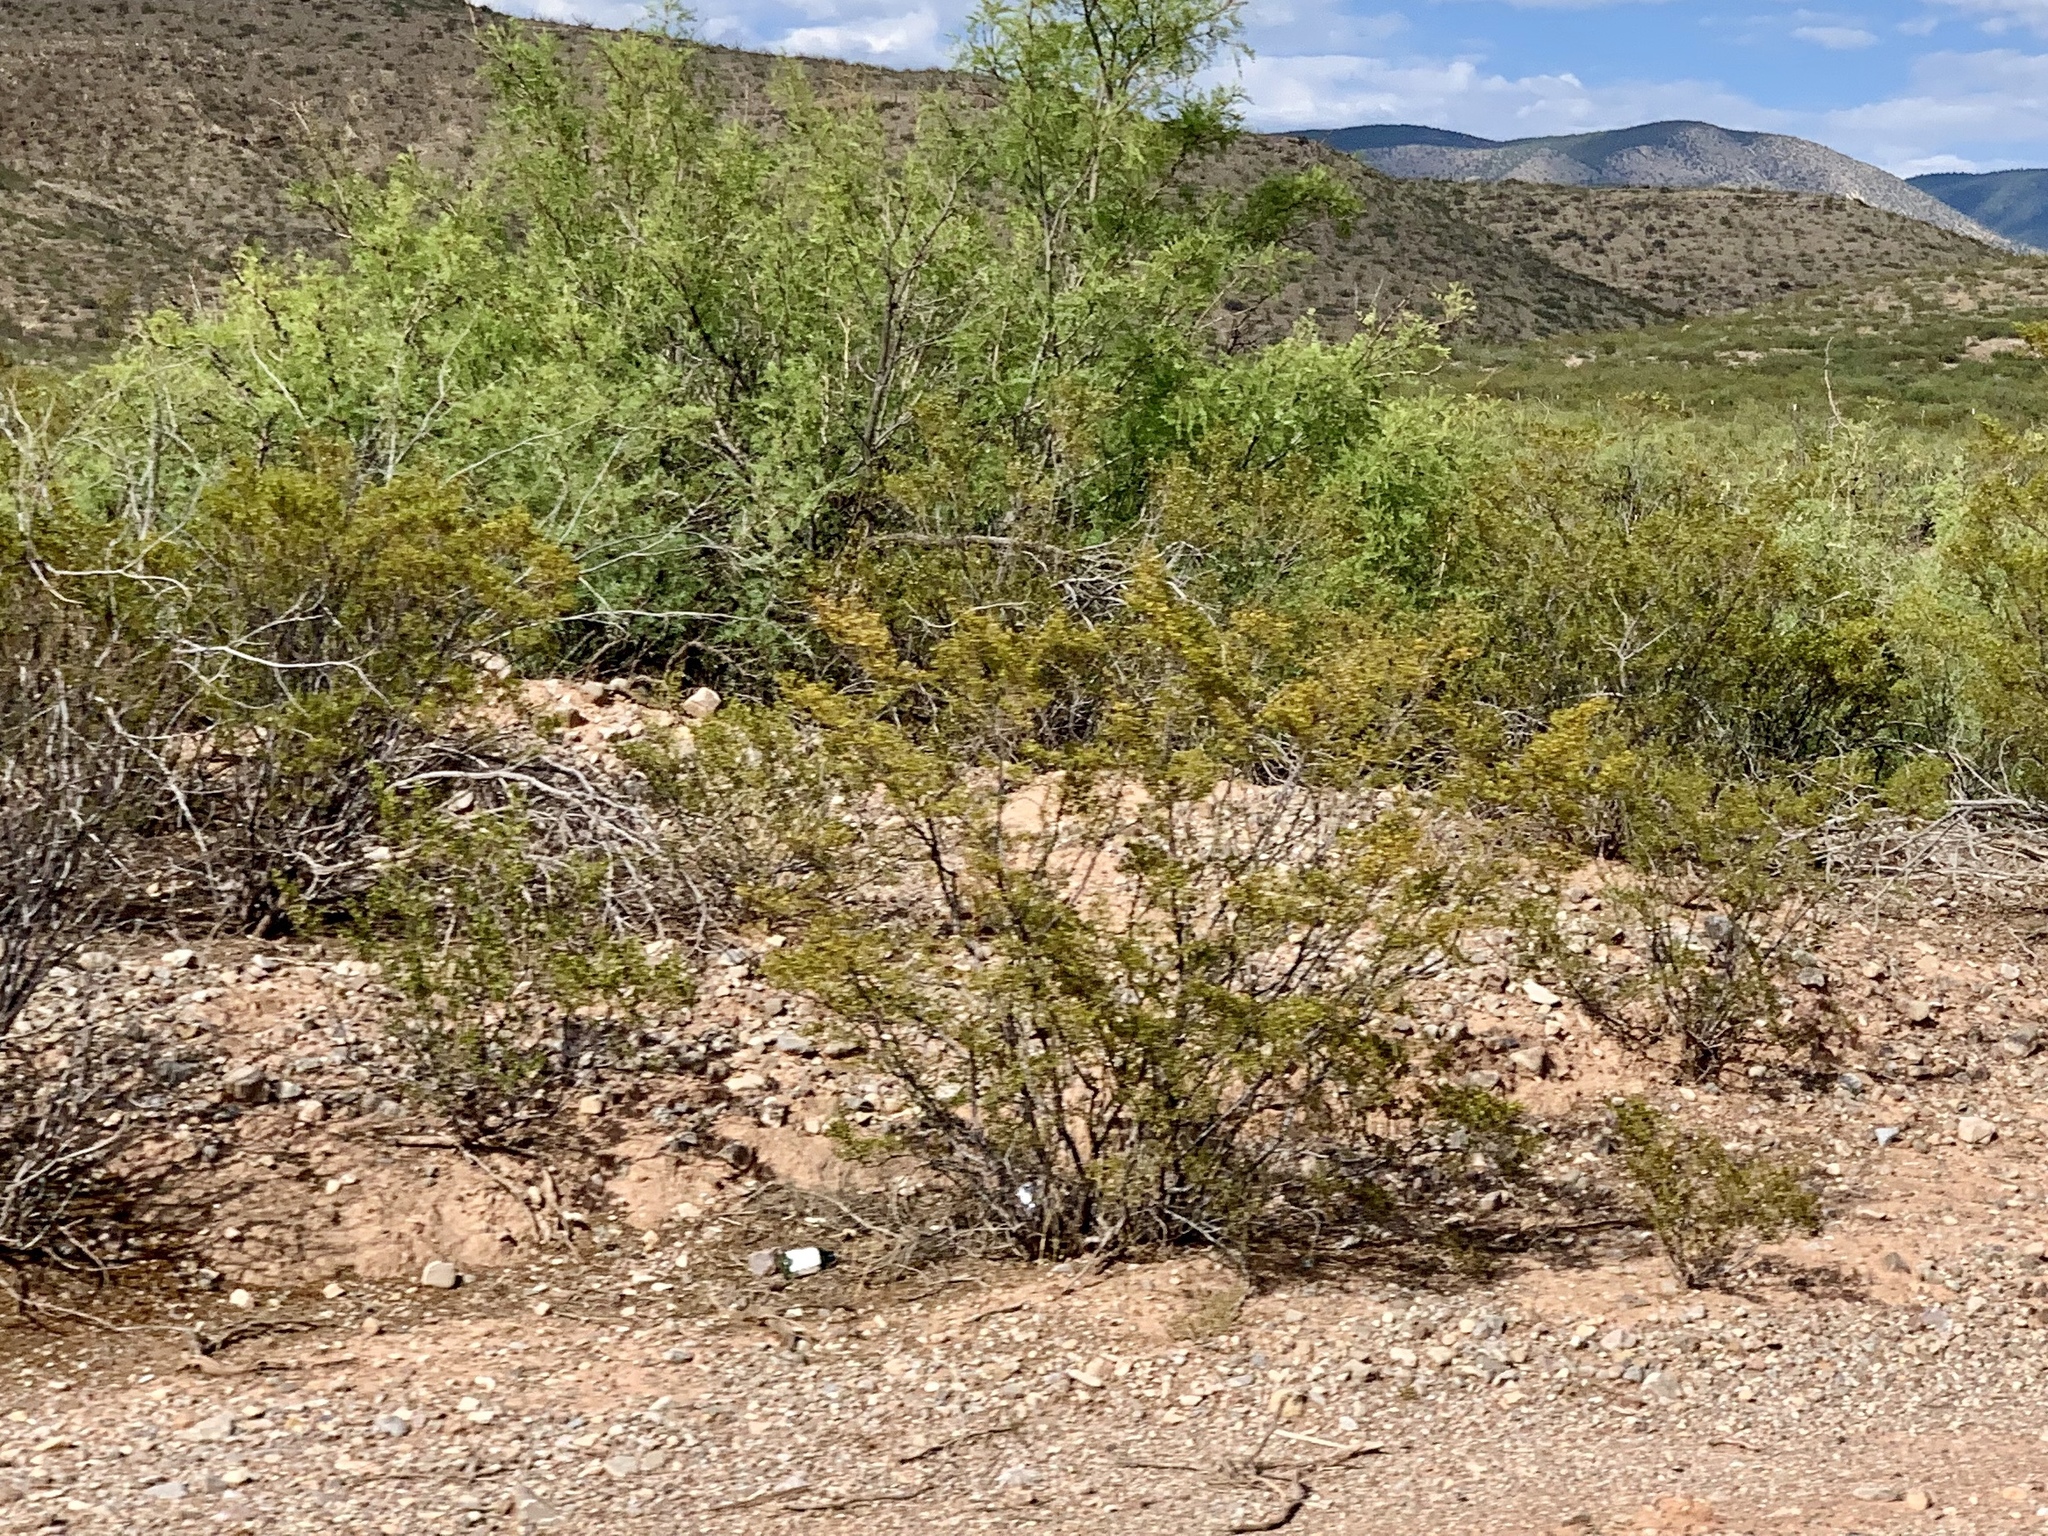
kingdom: Plantae
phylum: Tracheophyta
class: Magnoliopsida
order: Zygophyllales
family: Zygophyllaceae
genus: Larrea
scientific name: Larrea tridentata
